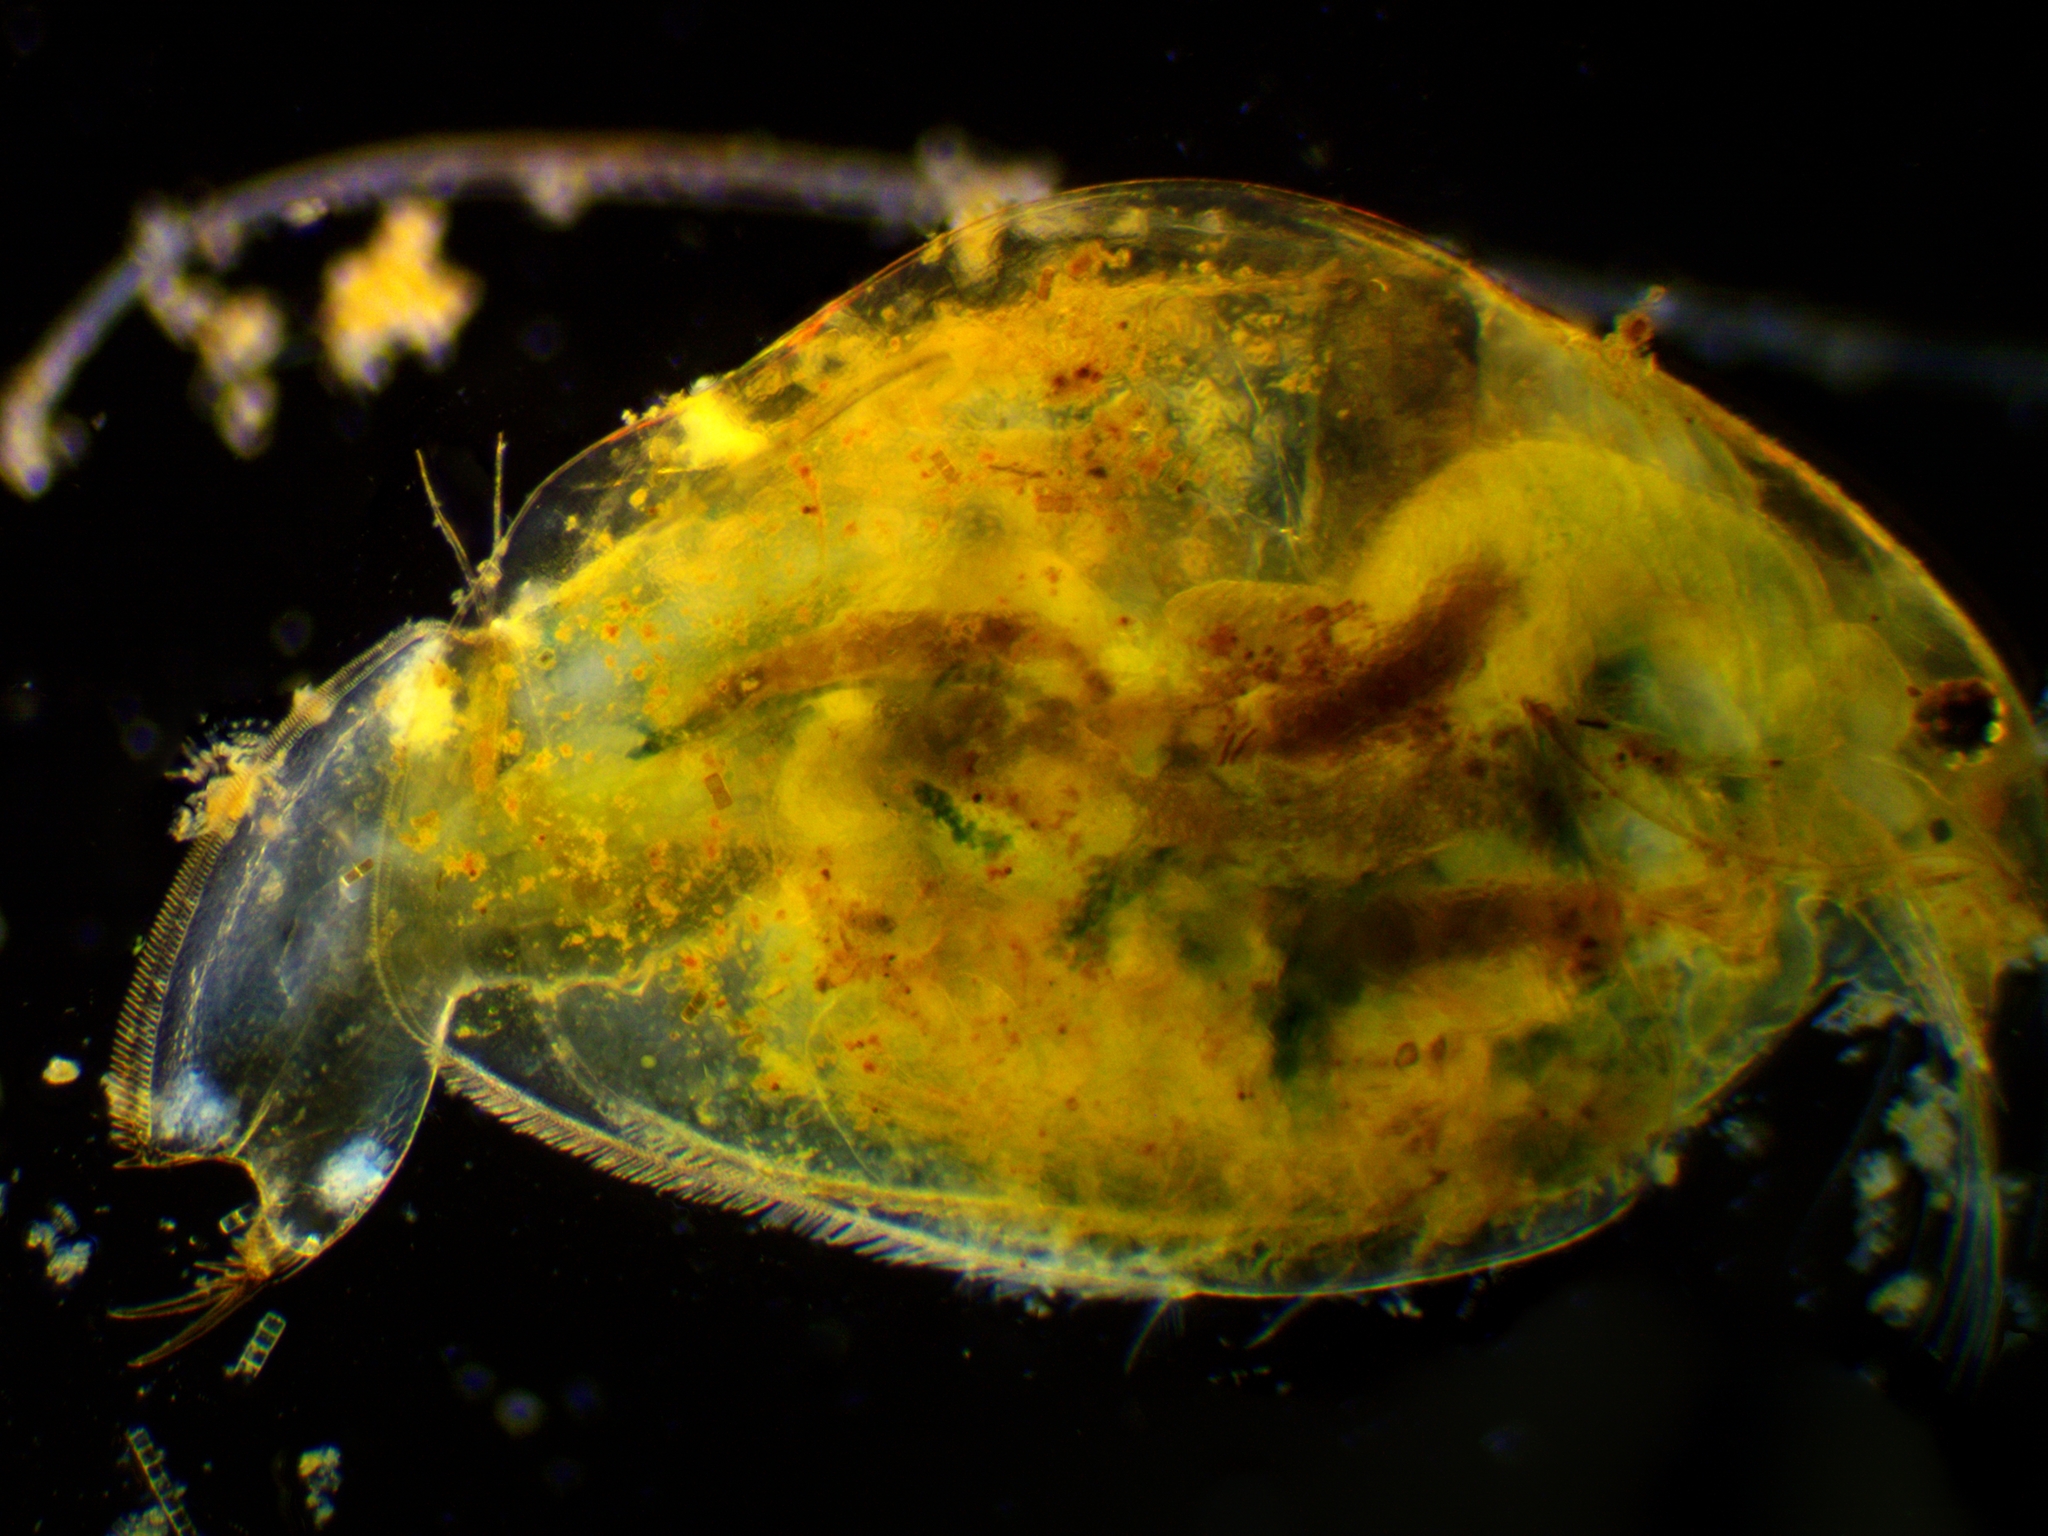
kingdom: Animalia
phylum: Arthropoda
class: Branchiopoda
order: Diplostraca
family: Eurycercidae
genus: Eurycercus
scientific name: Eurycercus lamellatus
